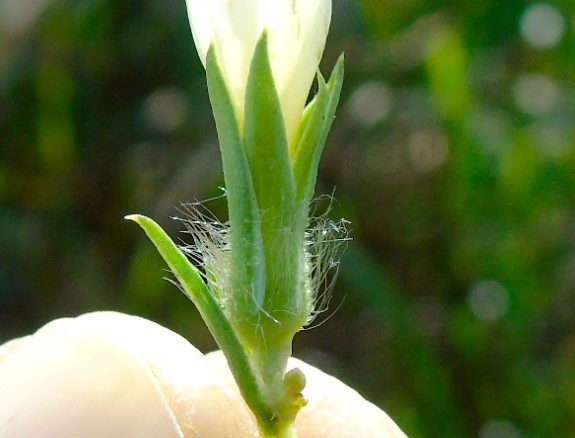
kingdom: Plantae
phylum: Tracheophyta
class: Magnoliopsida
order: Solanales
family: Convolvulaceae
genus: Ipomoea
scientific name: Ipomoea meyeri
